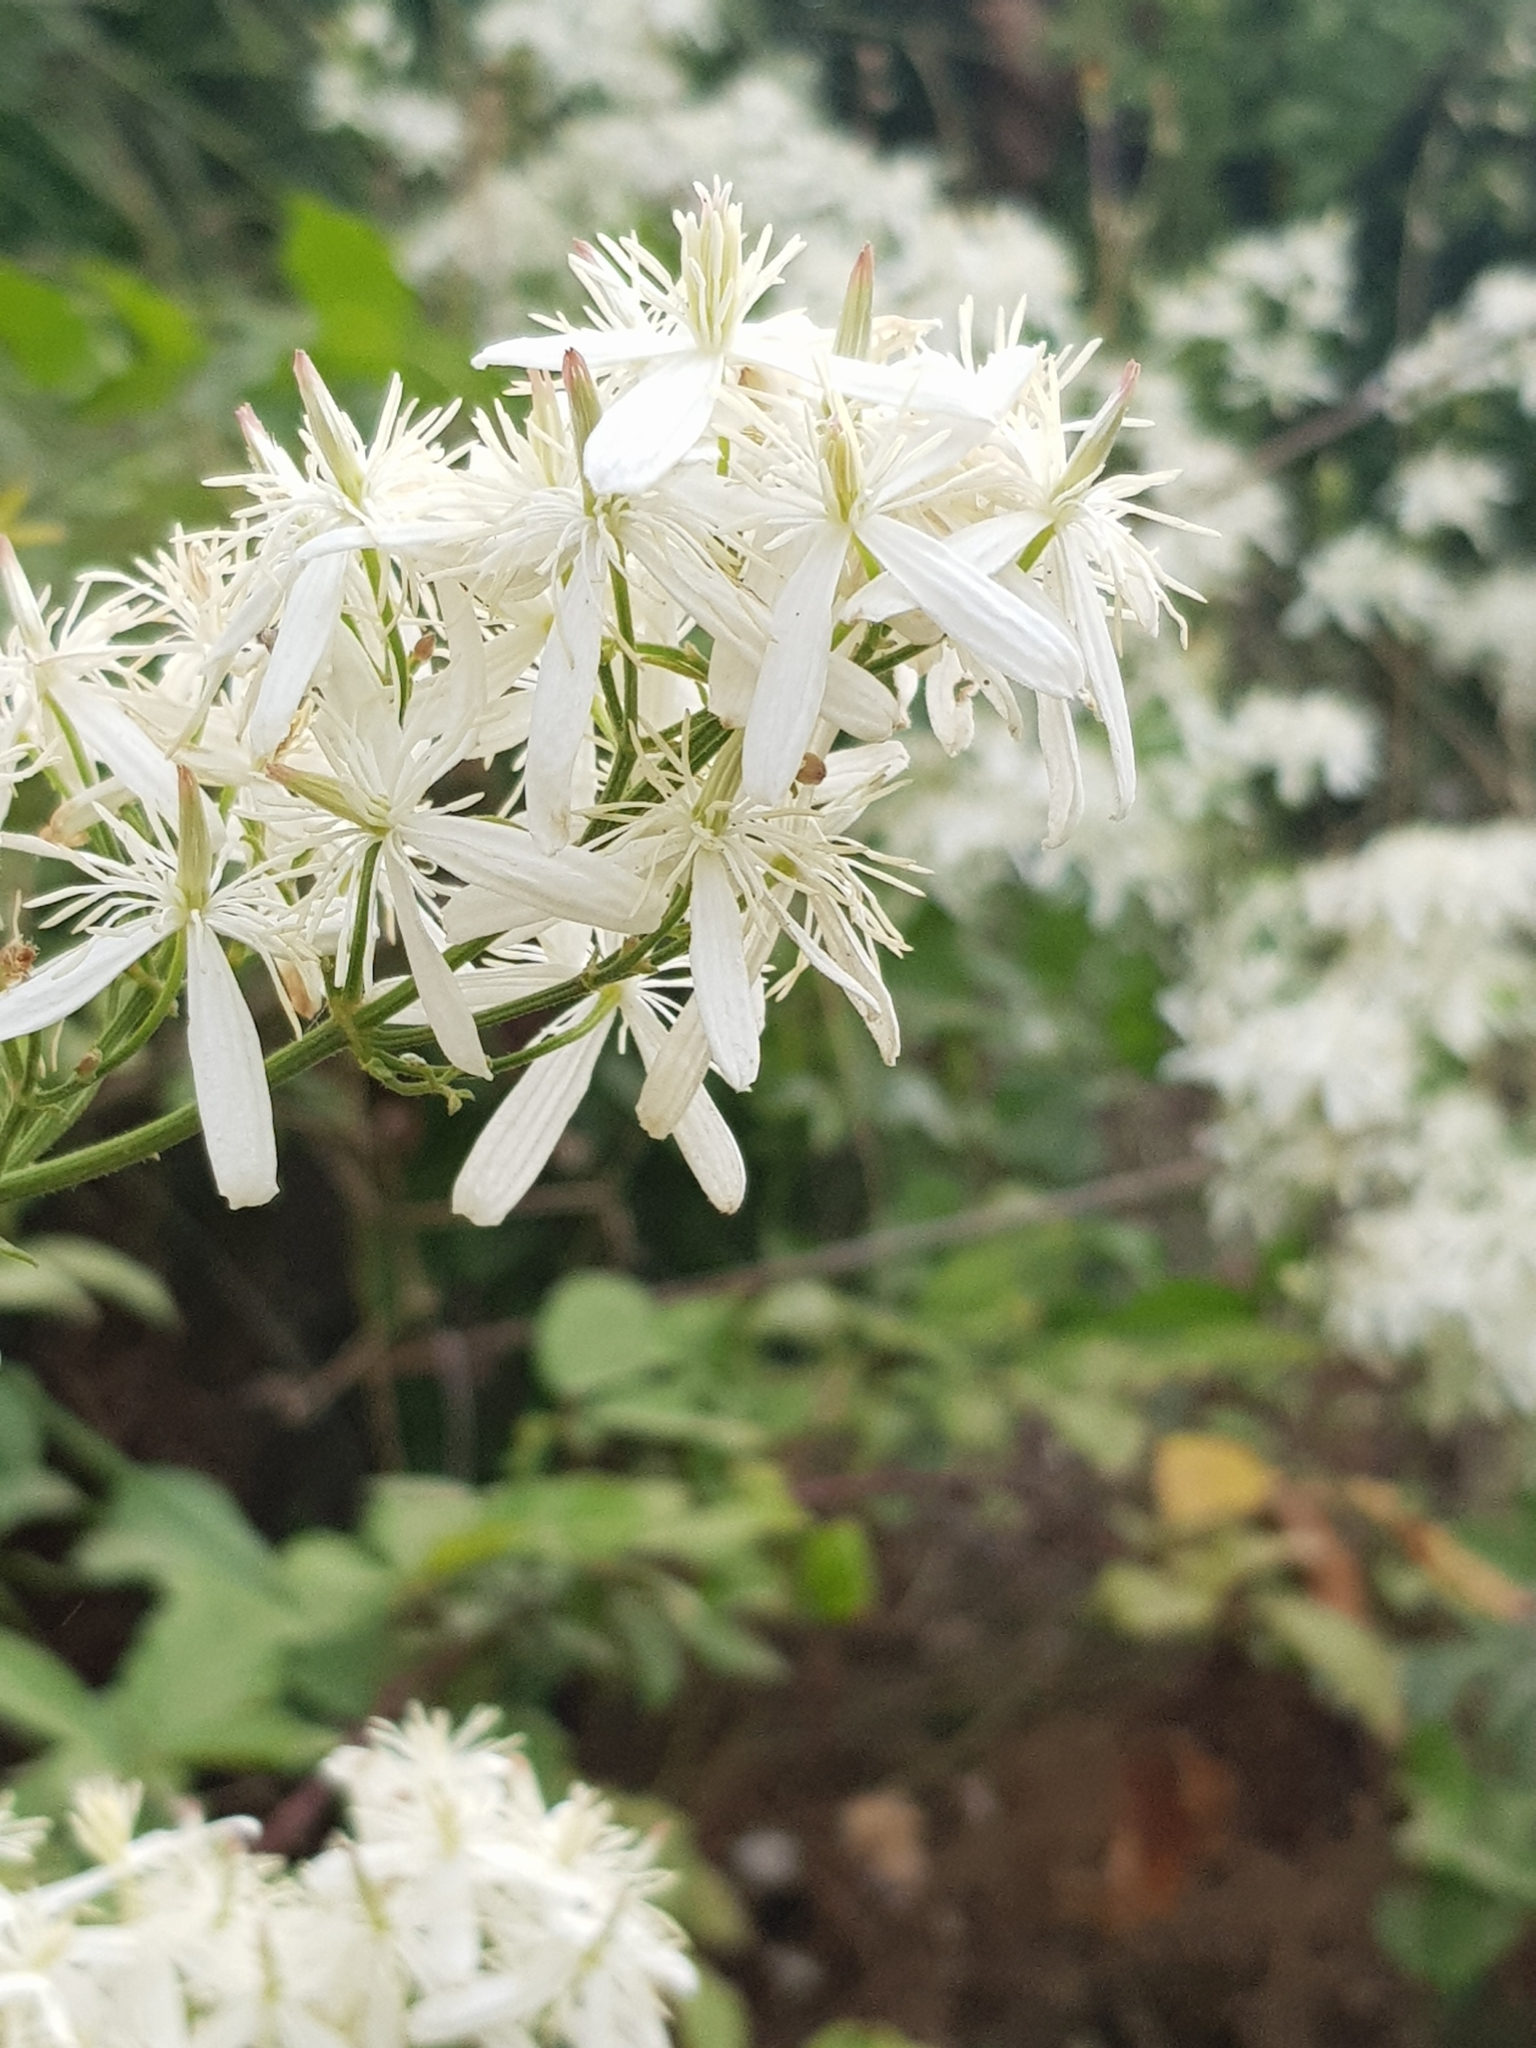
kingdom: Plantae
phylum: Tracheophyta
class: Magnoliopsida
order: Ranunculales
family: Ranunculaceae
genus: Clematis
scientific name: Clematis flammula
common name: Virgin's-bower
